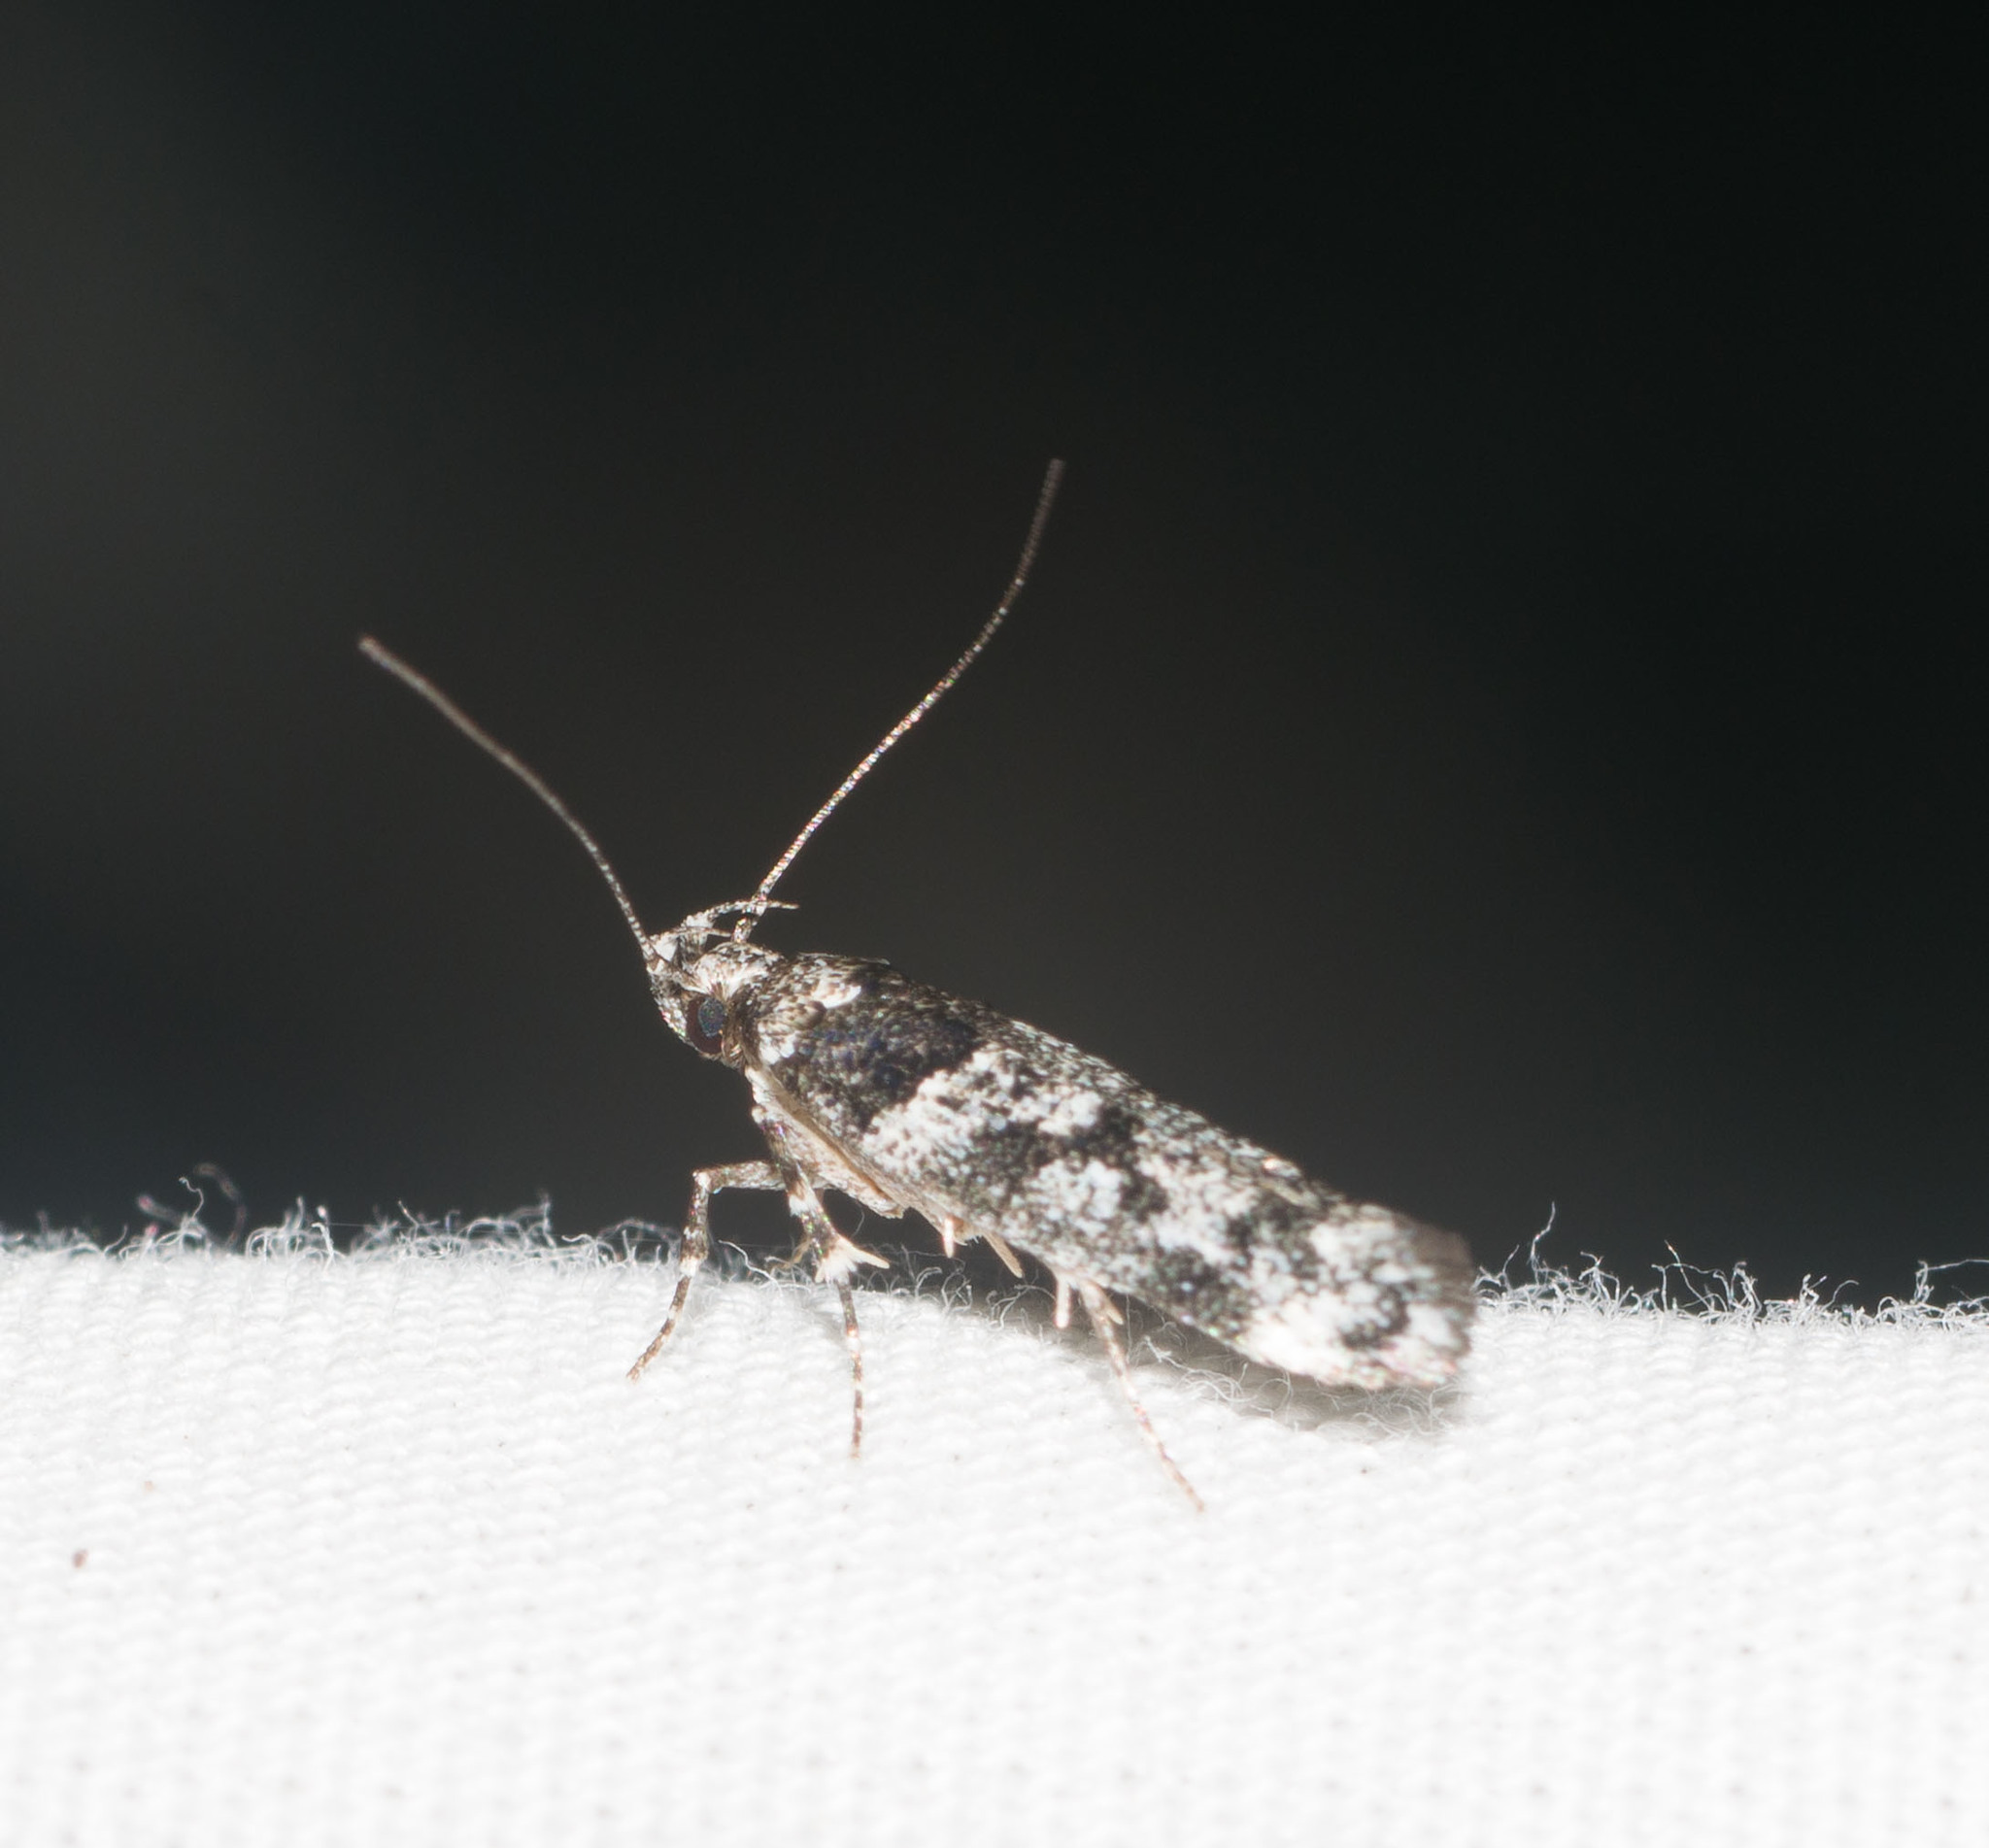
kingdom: Animalia
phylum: Arthropoda
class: Insecta
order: Lepidoptera
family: Cosmopterigidae
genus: Hyposmochoma
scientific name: Hyposmochoma empedota
